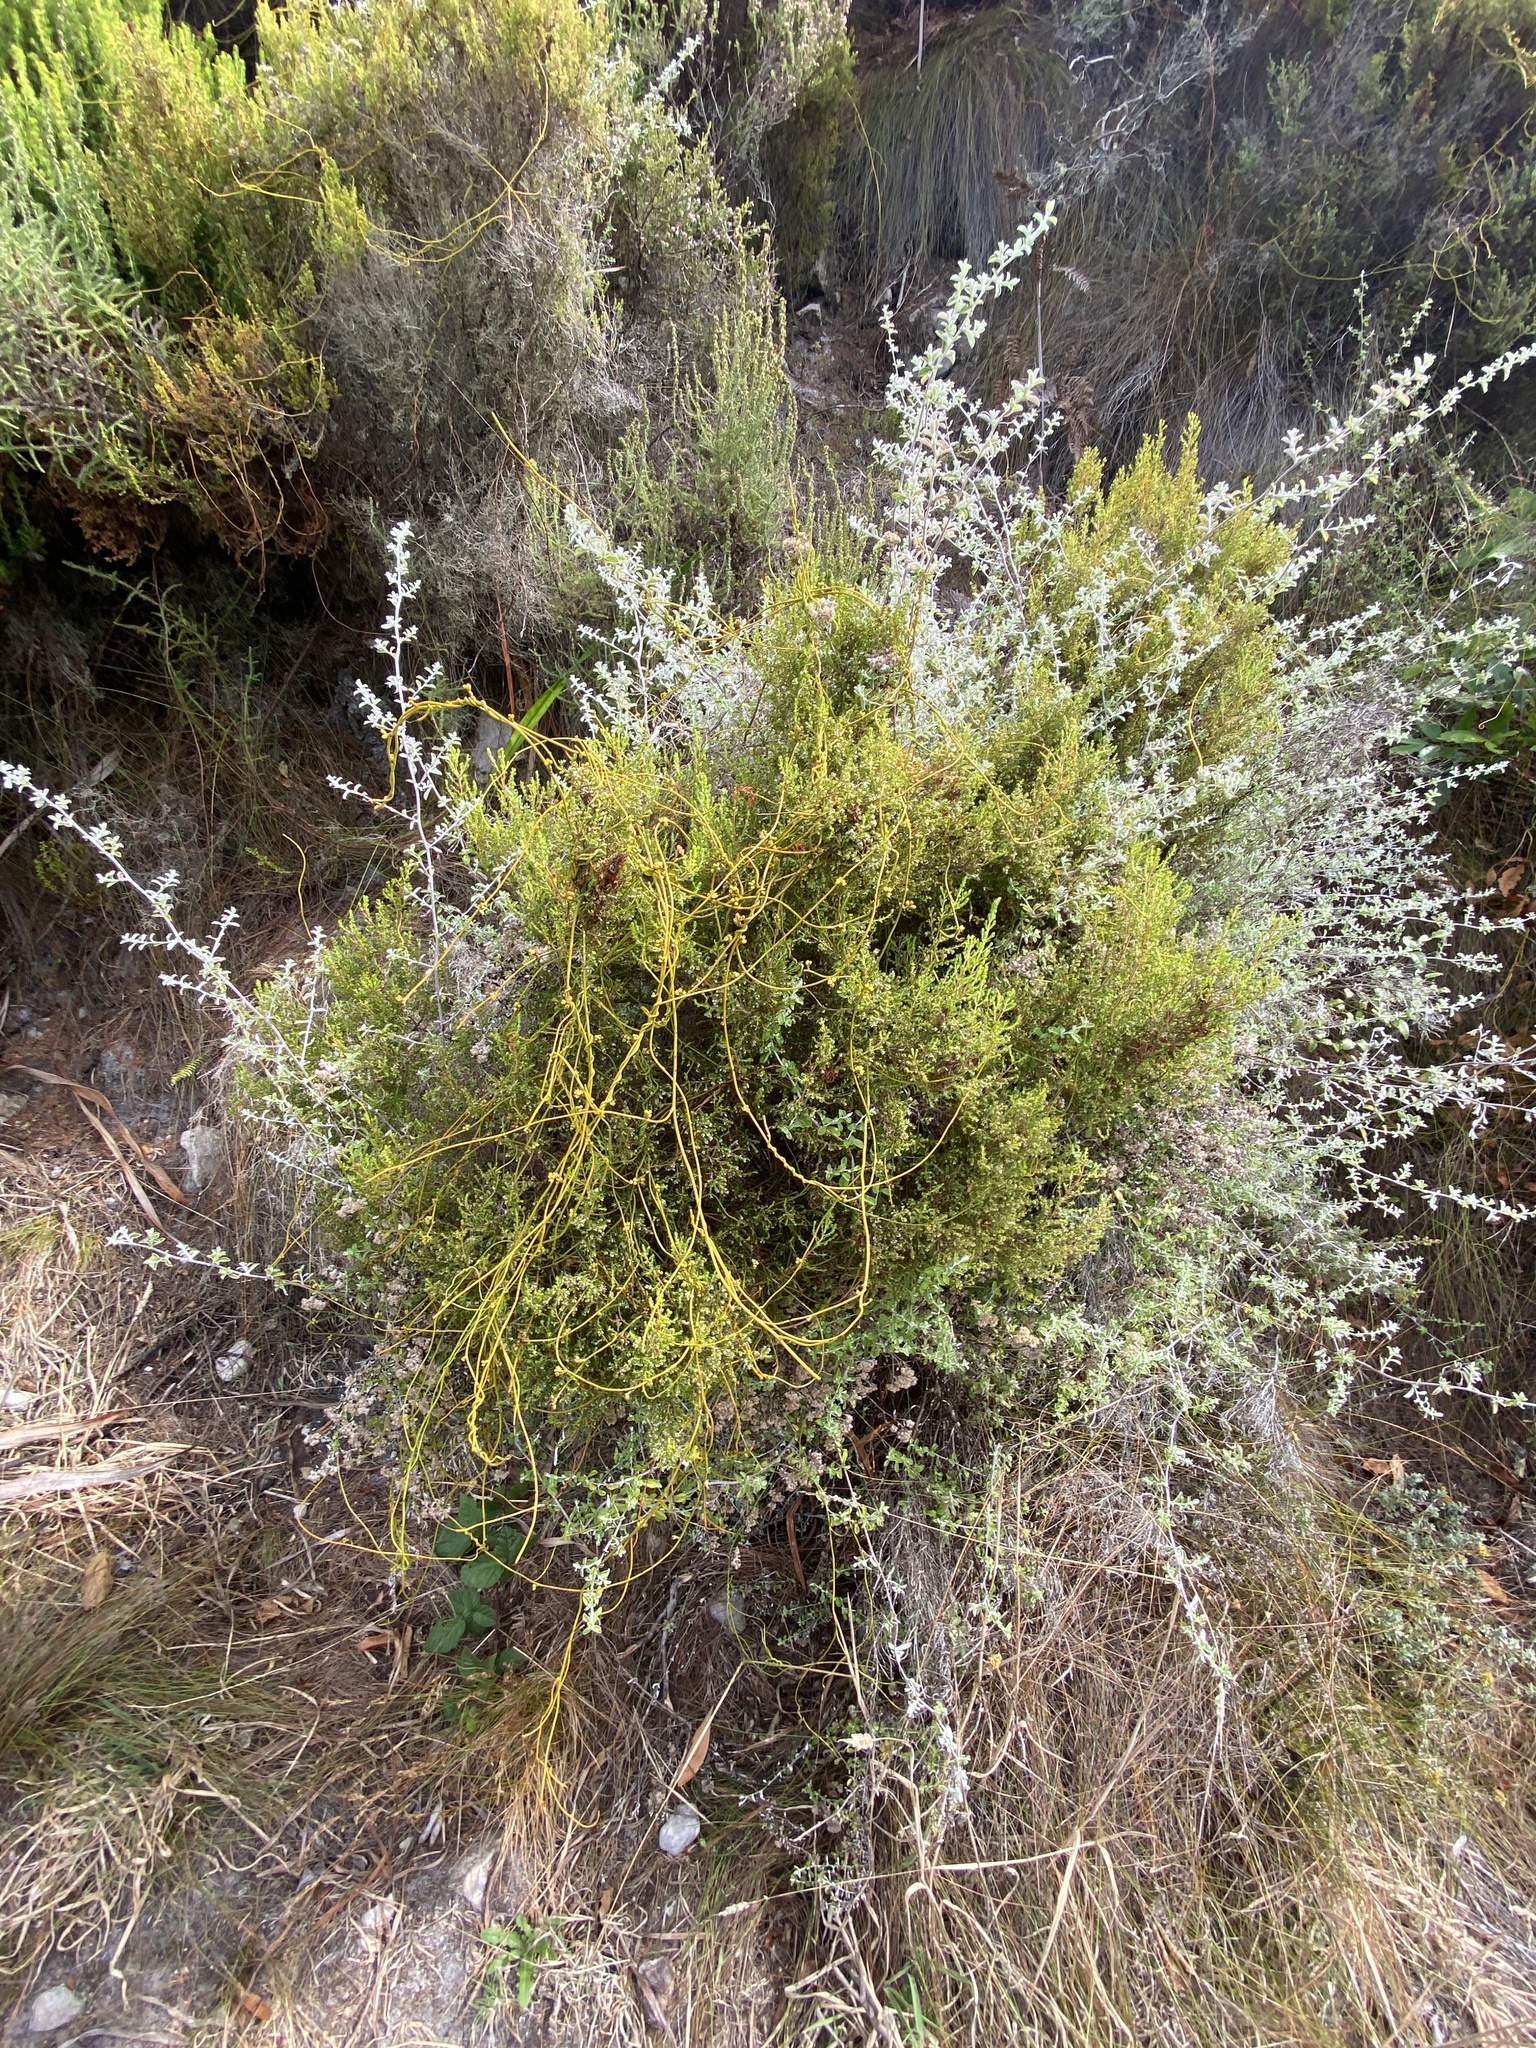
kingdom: Plantae
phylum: Tracheophyta
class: Magnoliopsida
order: Laurales
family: Lauraceae
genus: Cassytha
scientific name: Cassytha ciliolata
